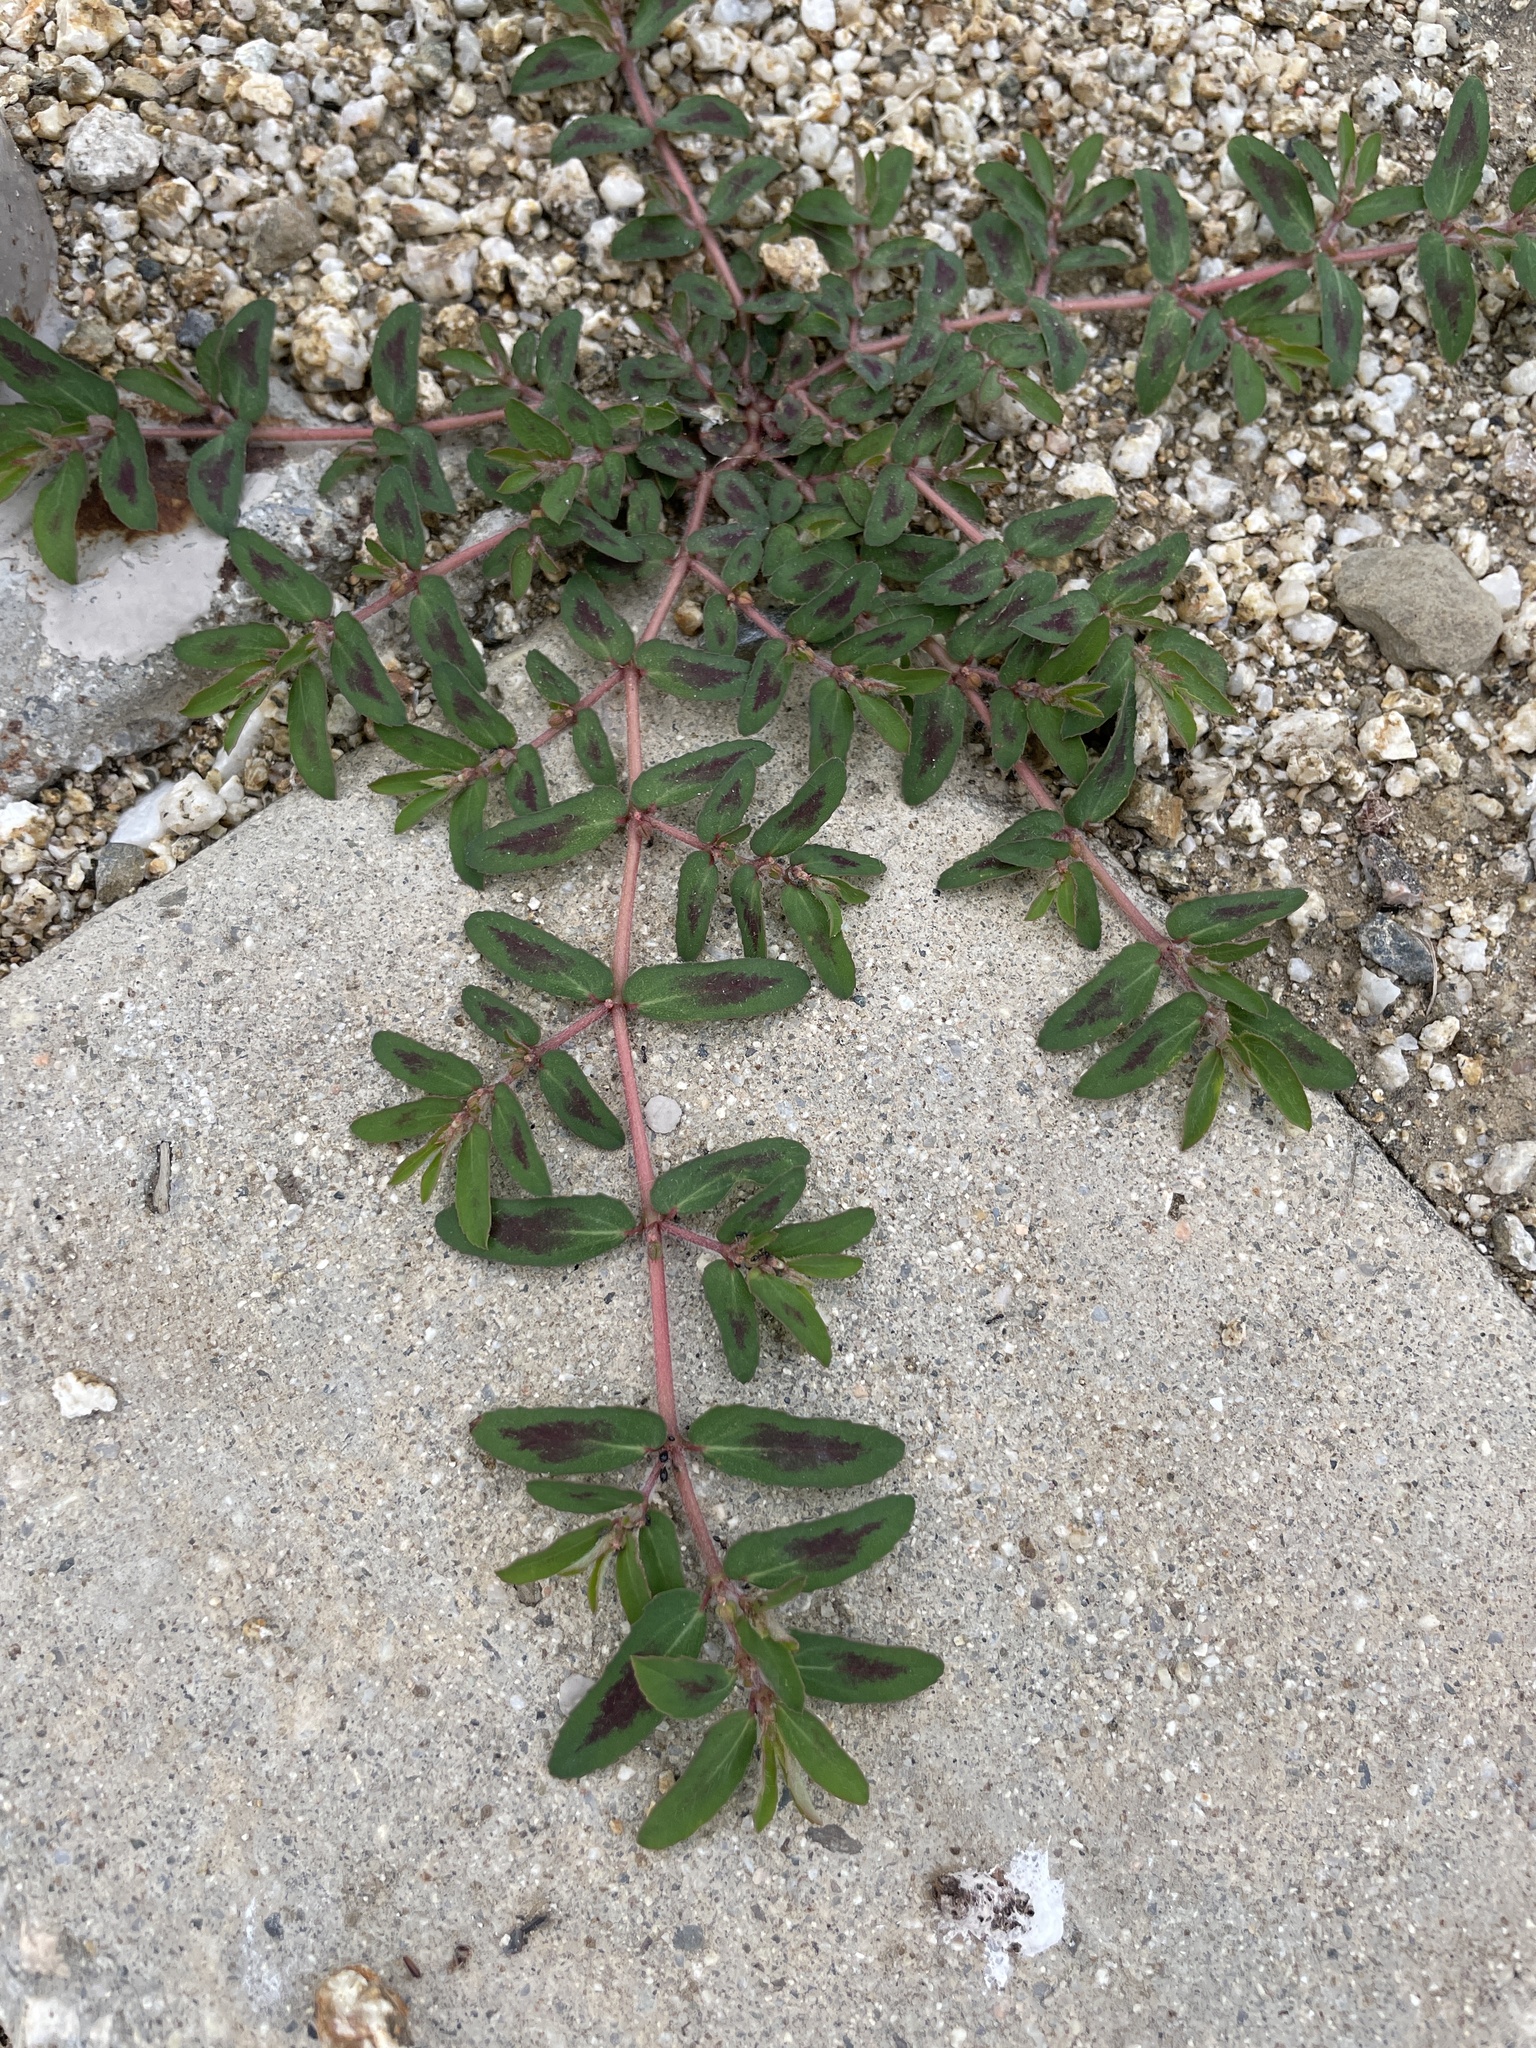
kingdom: Plantae
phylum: Tracheophyta
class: Magnoliopsida
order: Malpighiales
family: Euphorbiaceae
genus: Euphorbia
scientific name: Euphorbia maculata
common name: Spotted spurge
